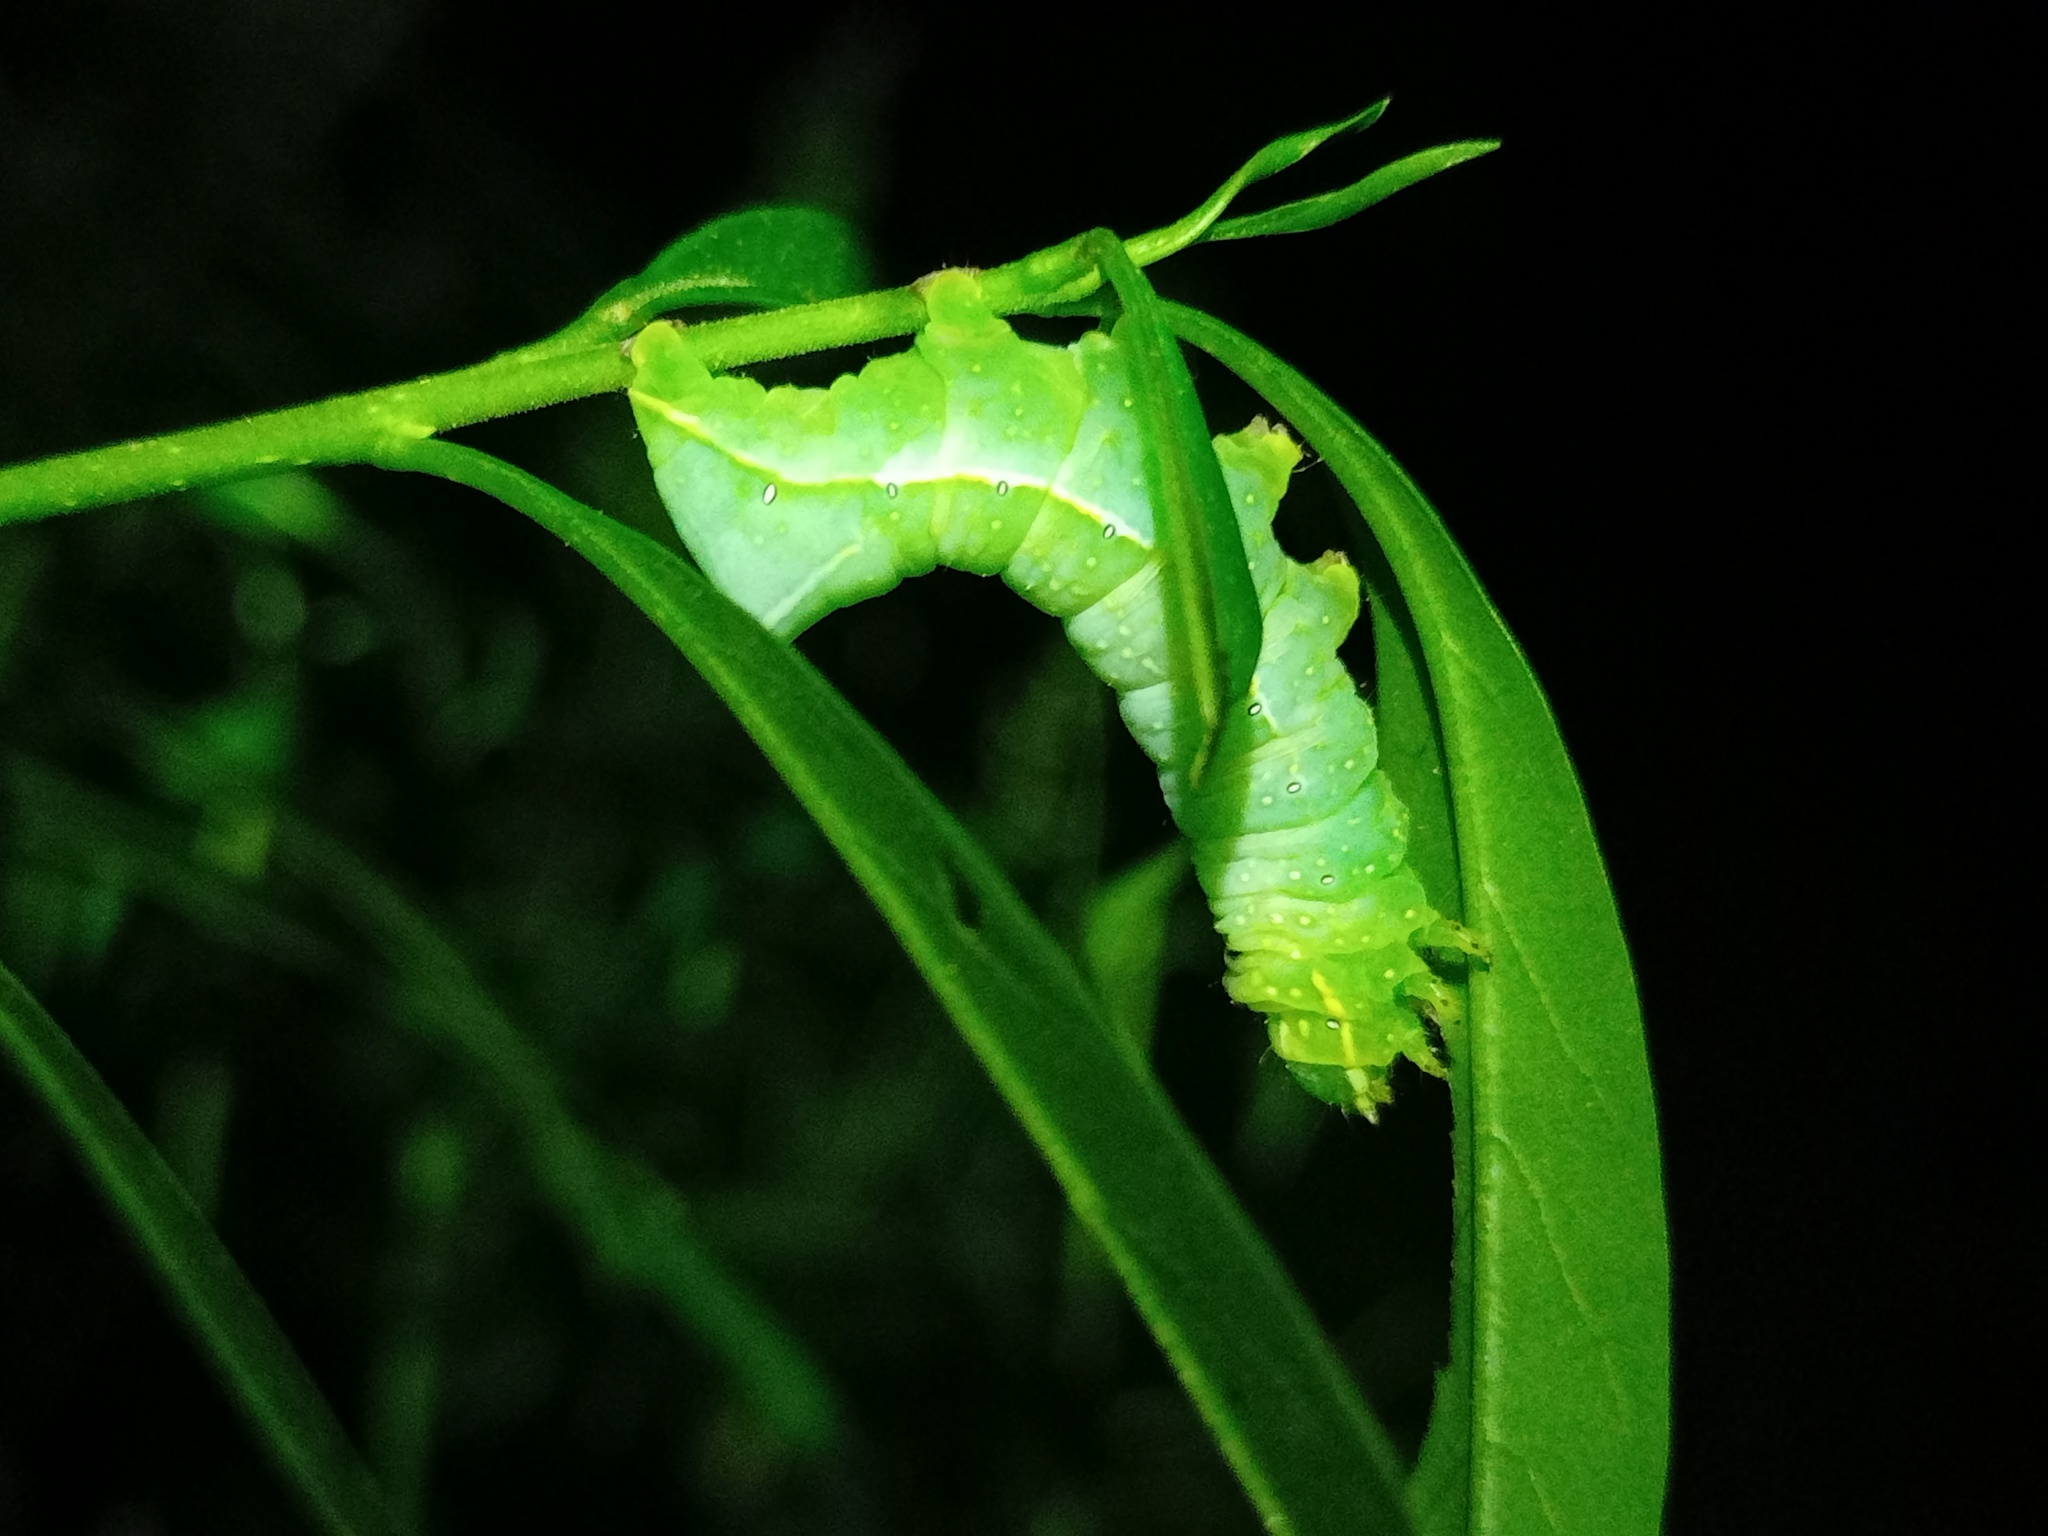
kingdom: Animalia
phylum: Arthropoda
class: Insecta
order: Lepidoptera
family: Noctuidae
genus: Amphipyra
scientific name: Amphipyra pyramidea
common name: Copper underwing
